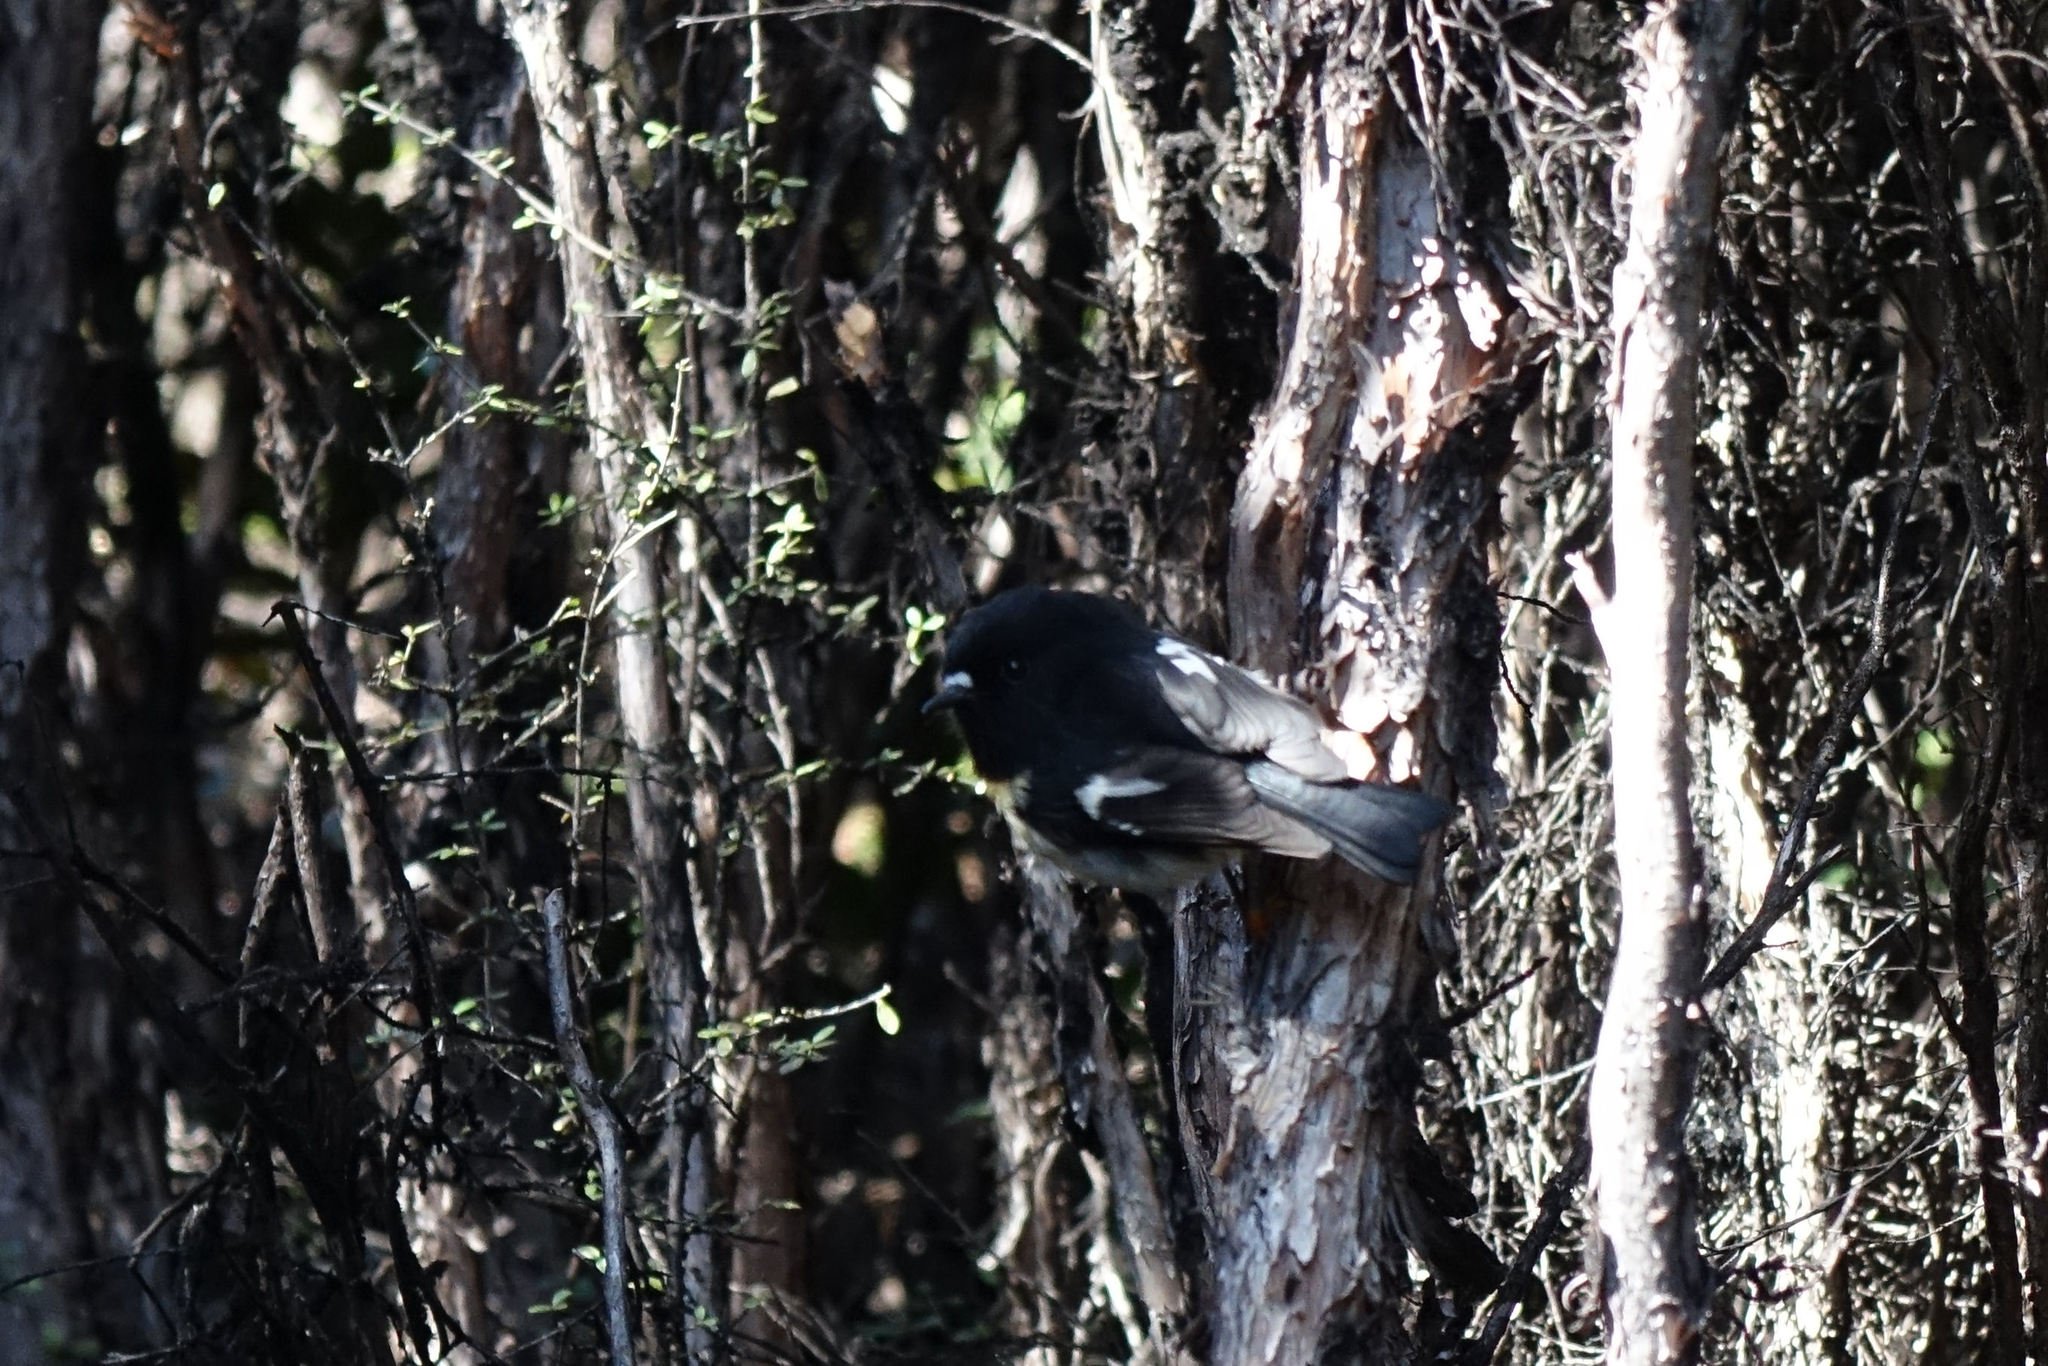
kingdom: Animalia
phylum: Chordata
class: Aves
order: Passeriformes
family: Petroicidae
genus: Petroica
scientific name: Petroica macrocephala
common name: Tomtit
